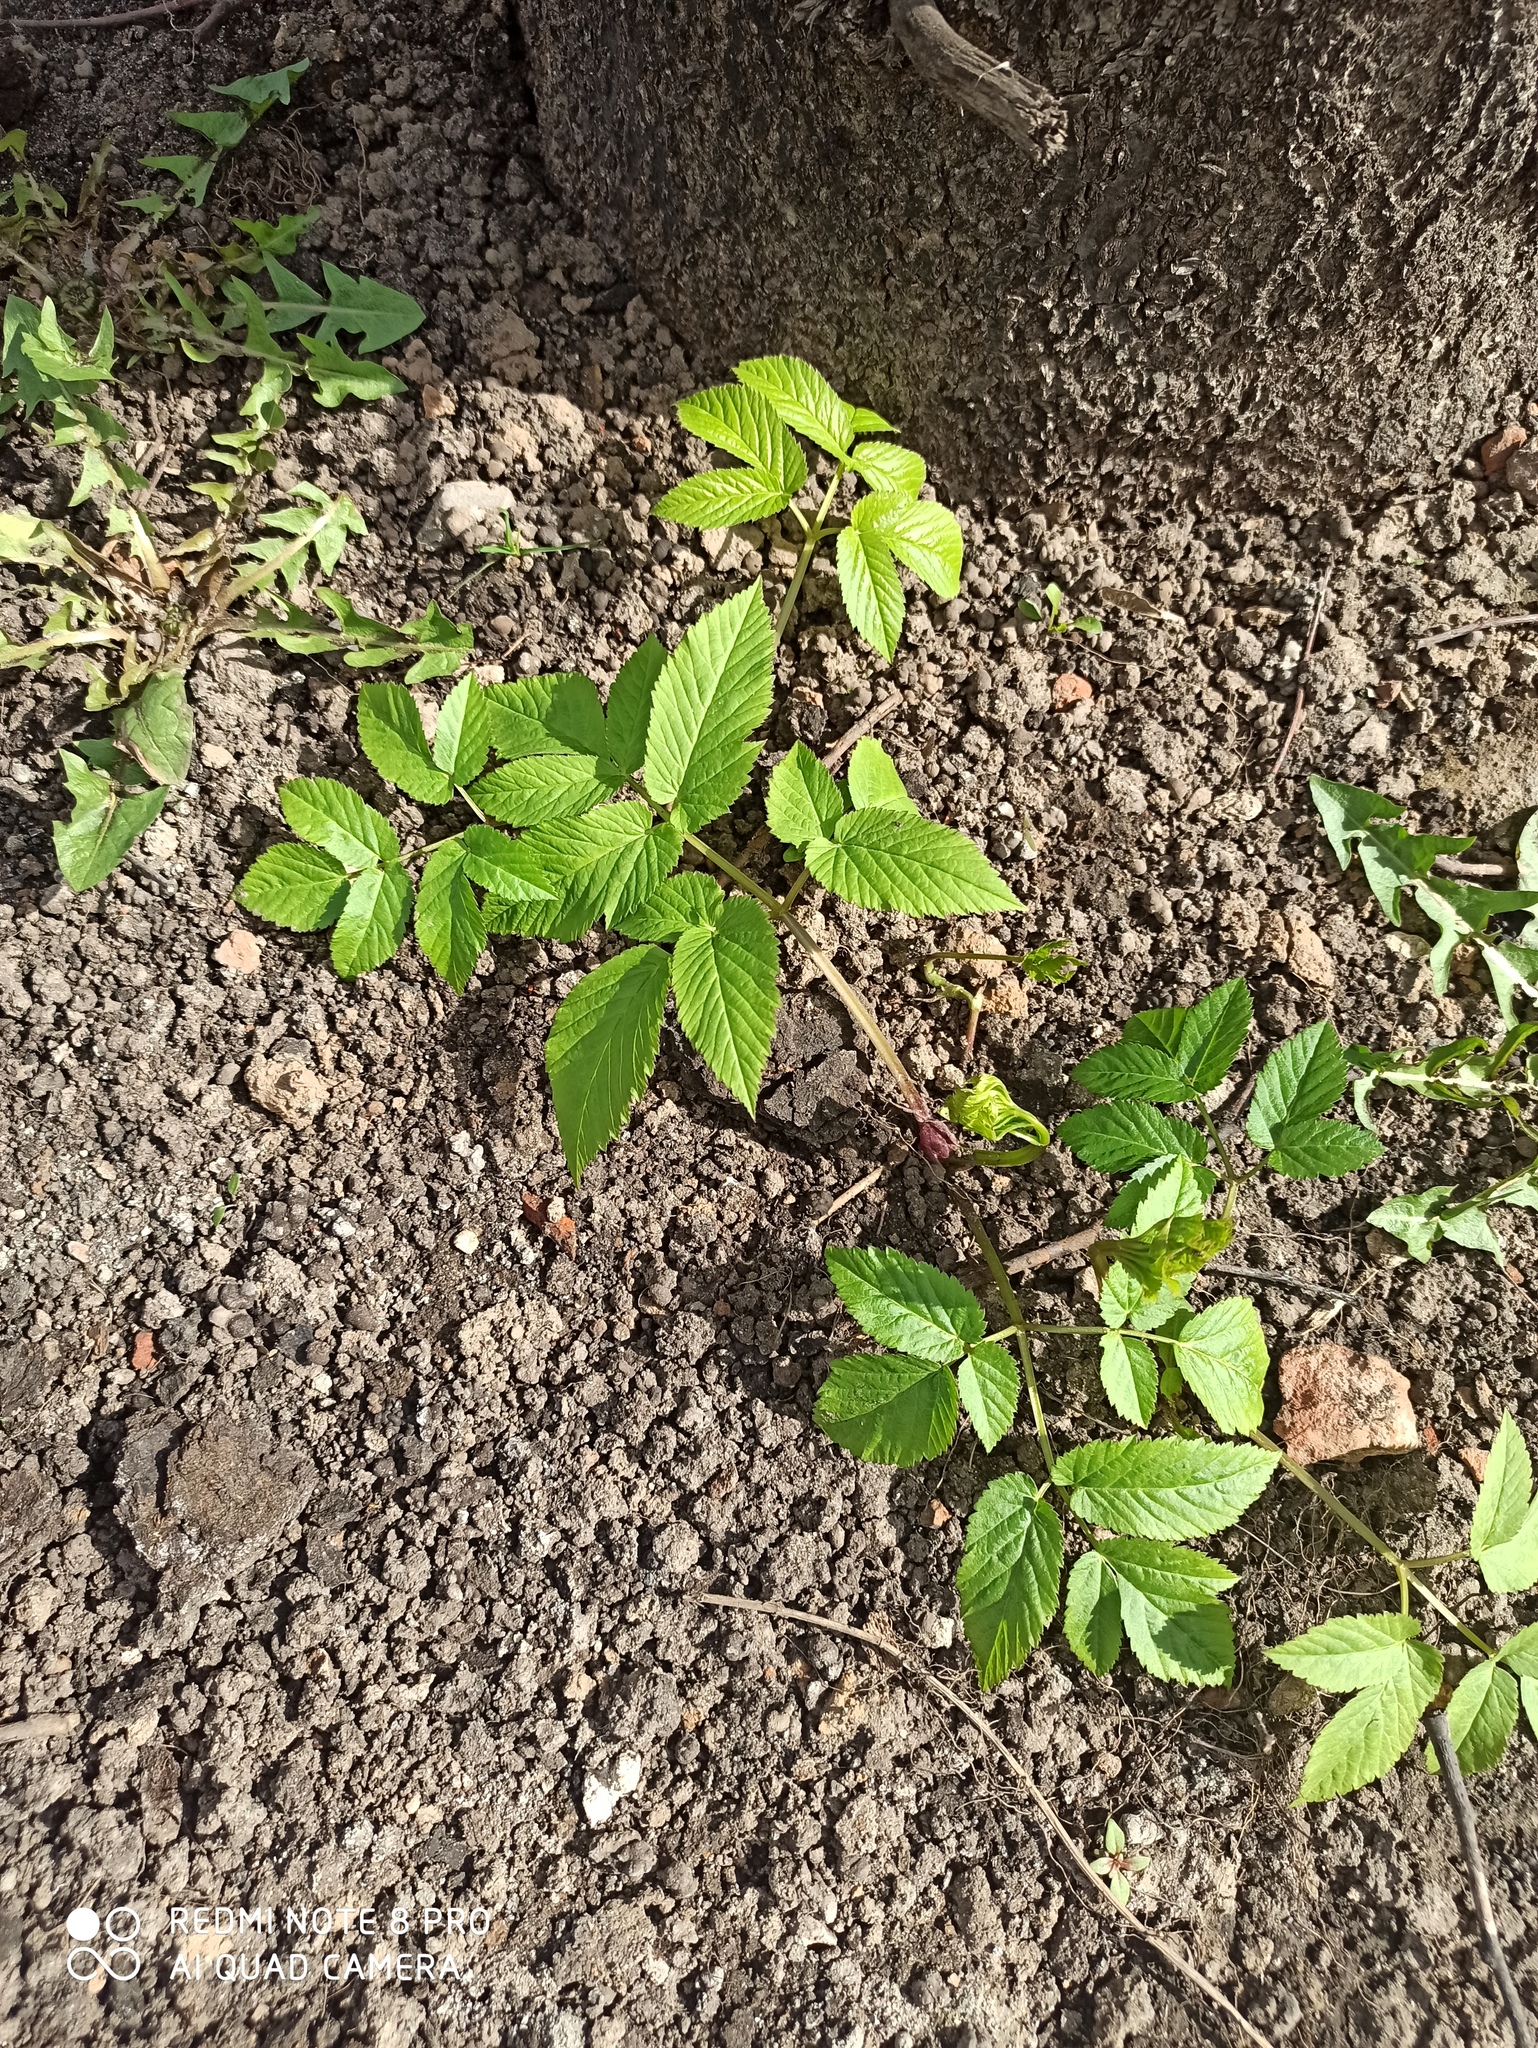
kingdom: Plantae
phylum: Tracheophyta
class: Magnoliopsida
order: Apiales
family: Apiaceae
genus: Aegopodium
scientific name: Aegopodium podagraria
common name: Ground-elder
